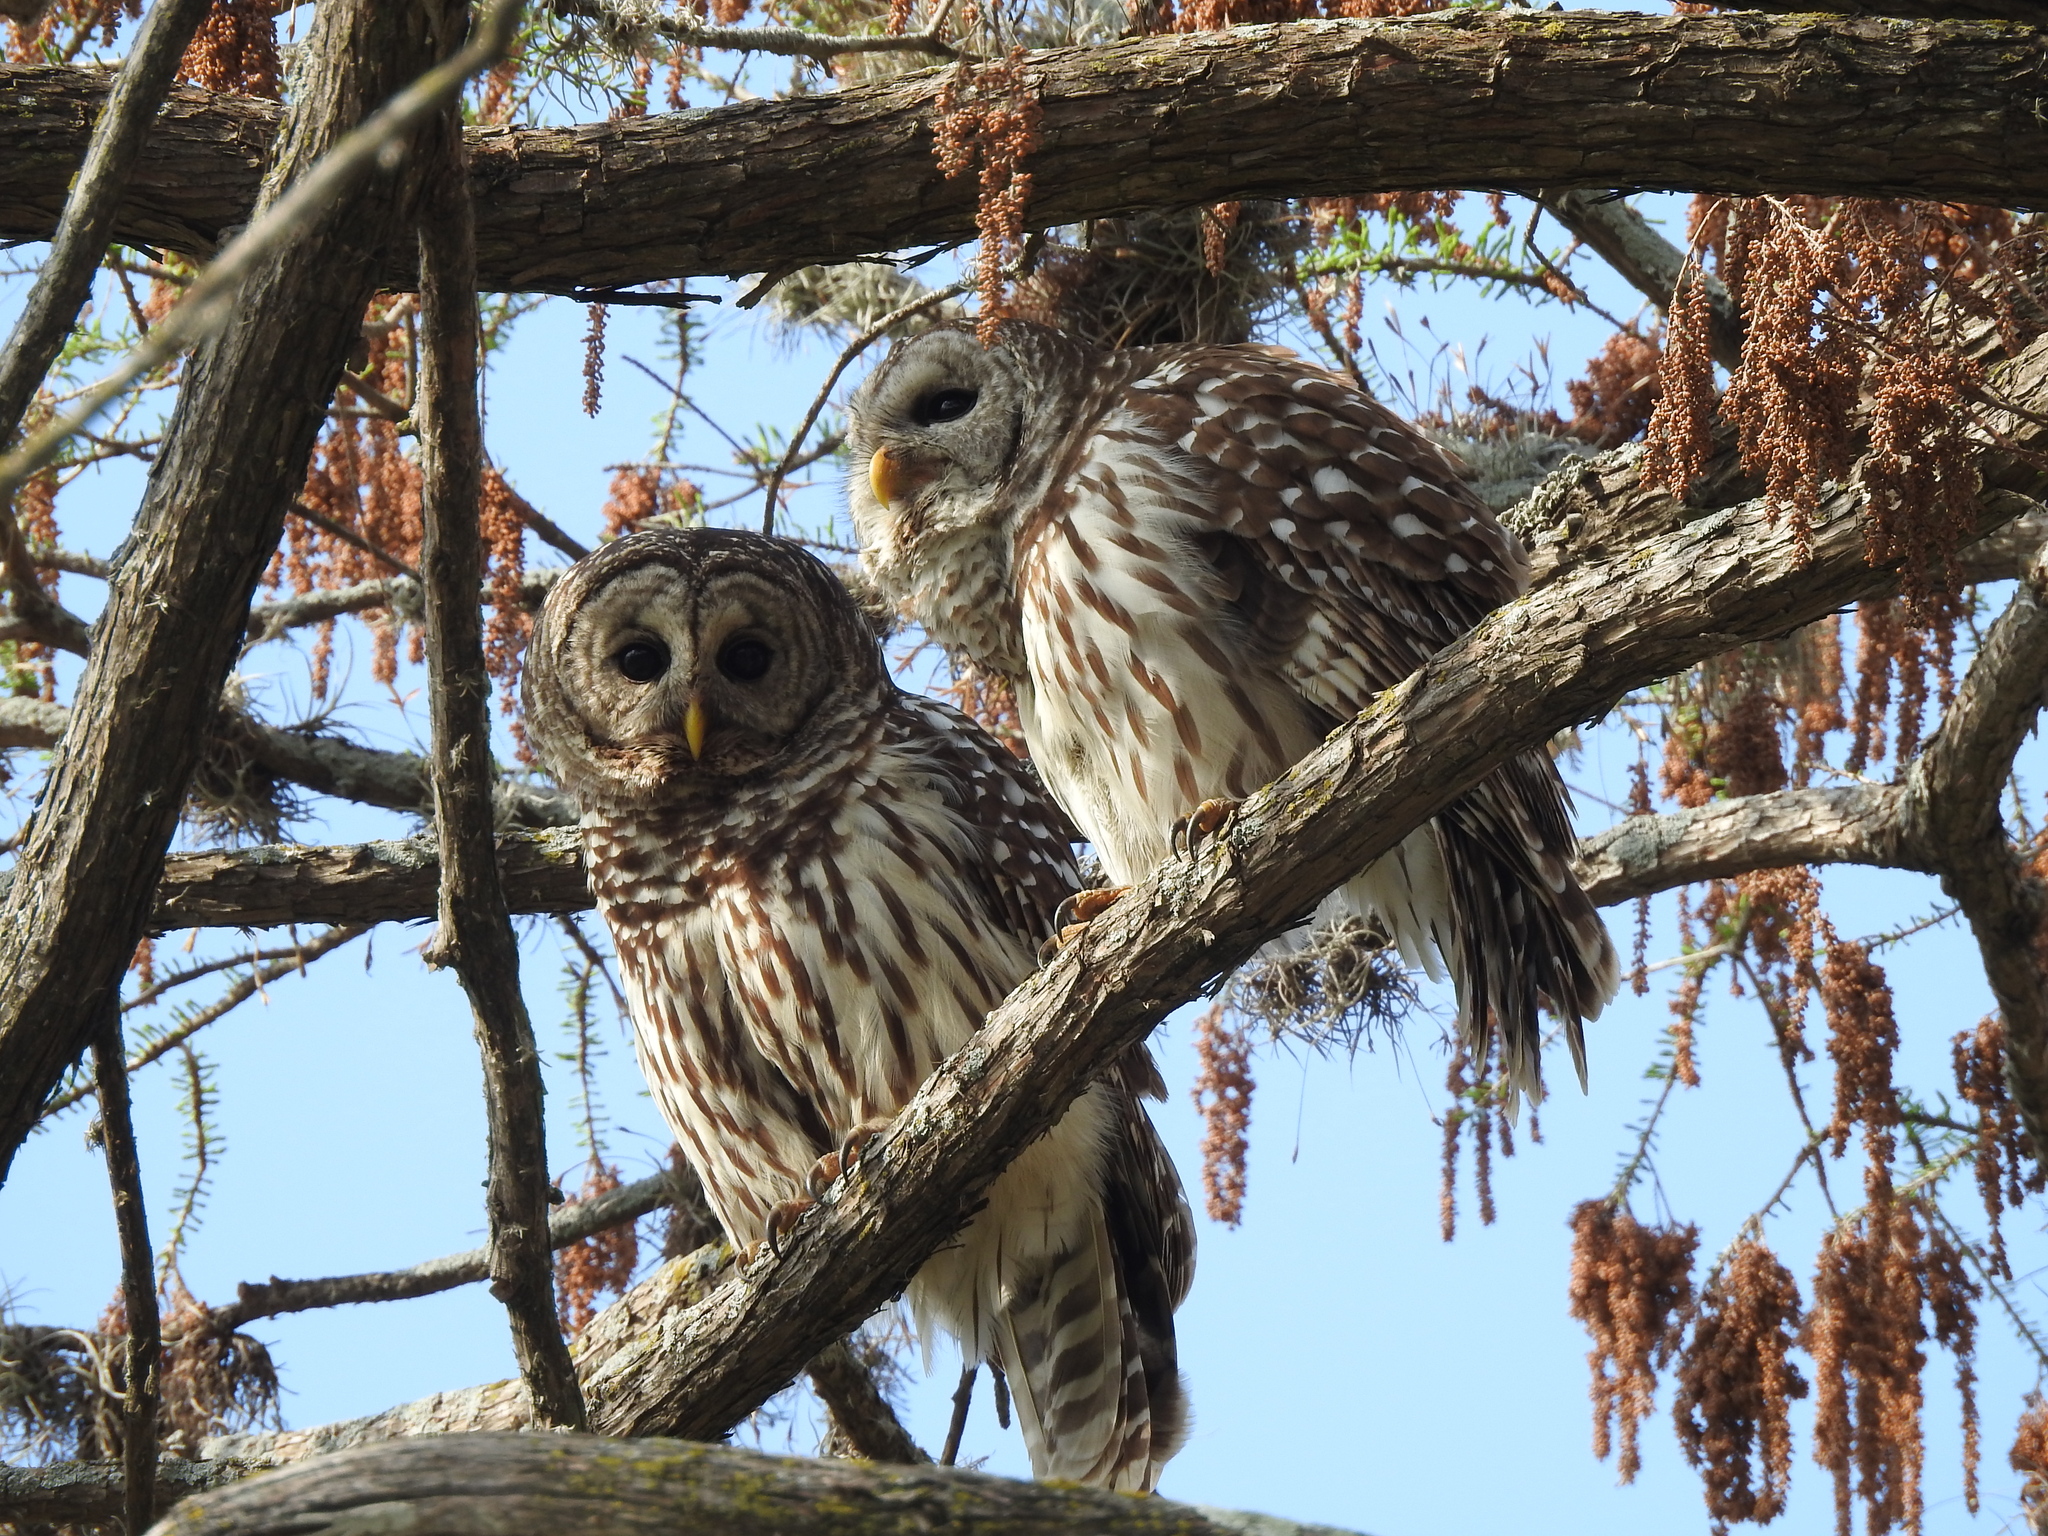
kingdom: Animalia
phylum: Chordata
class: Aves
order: Strigiformes
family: Strigidae
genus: Strix
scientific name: Strix varia
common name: Barred owl
